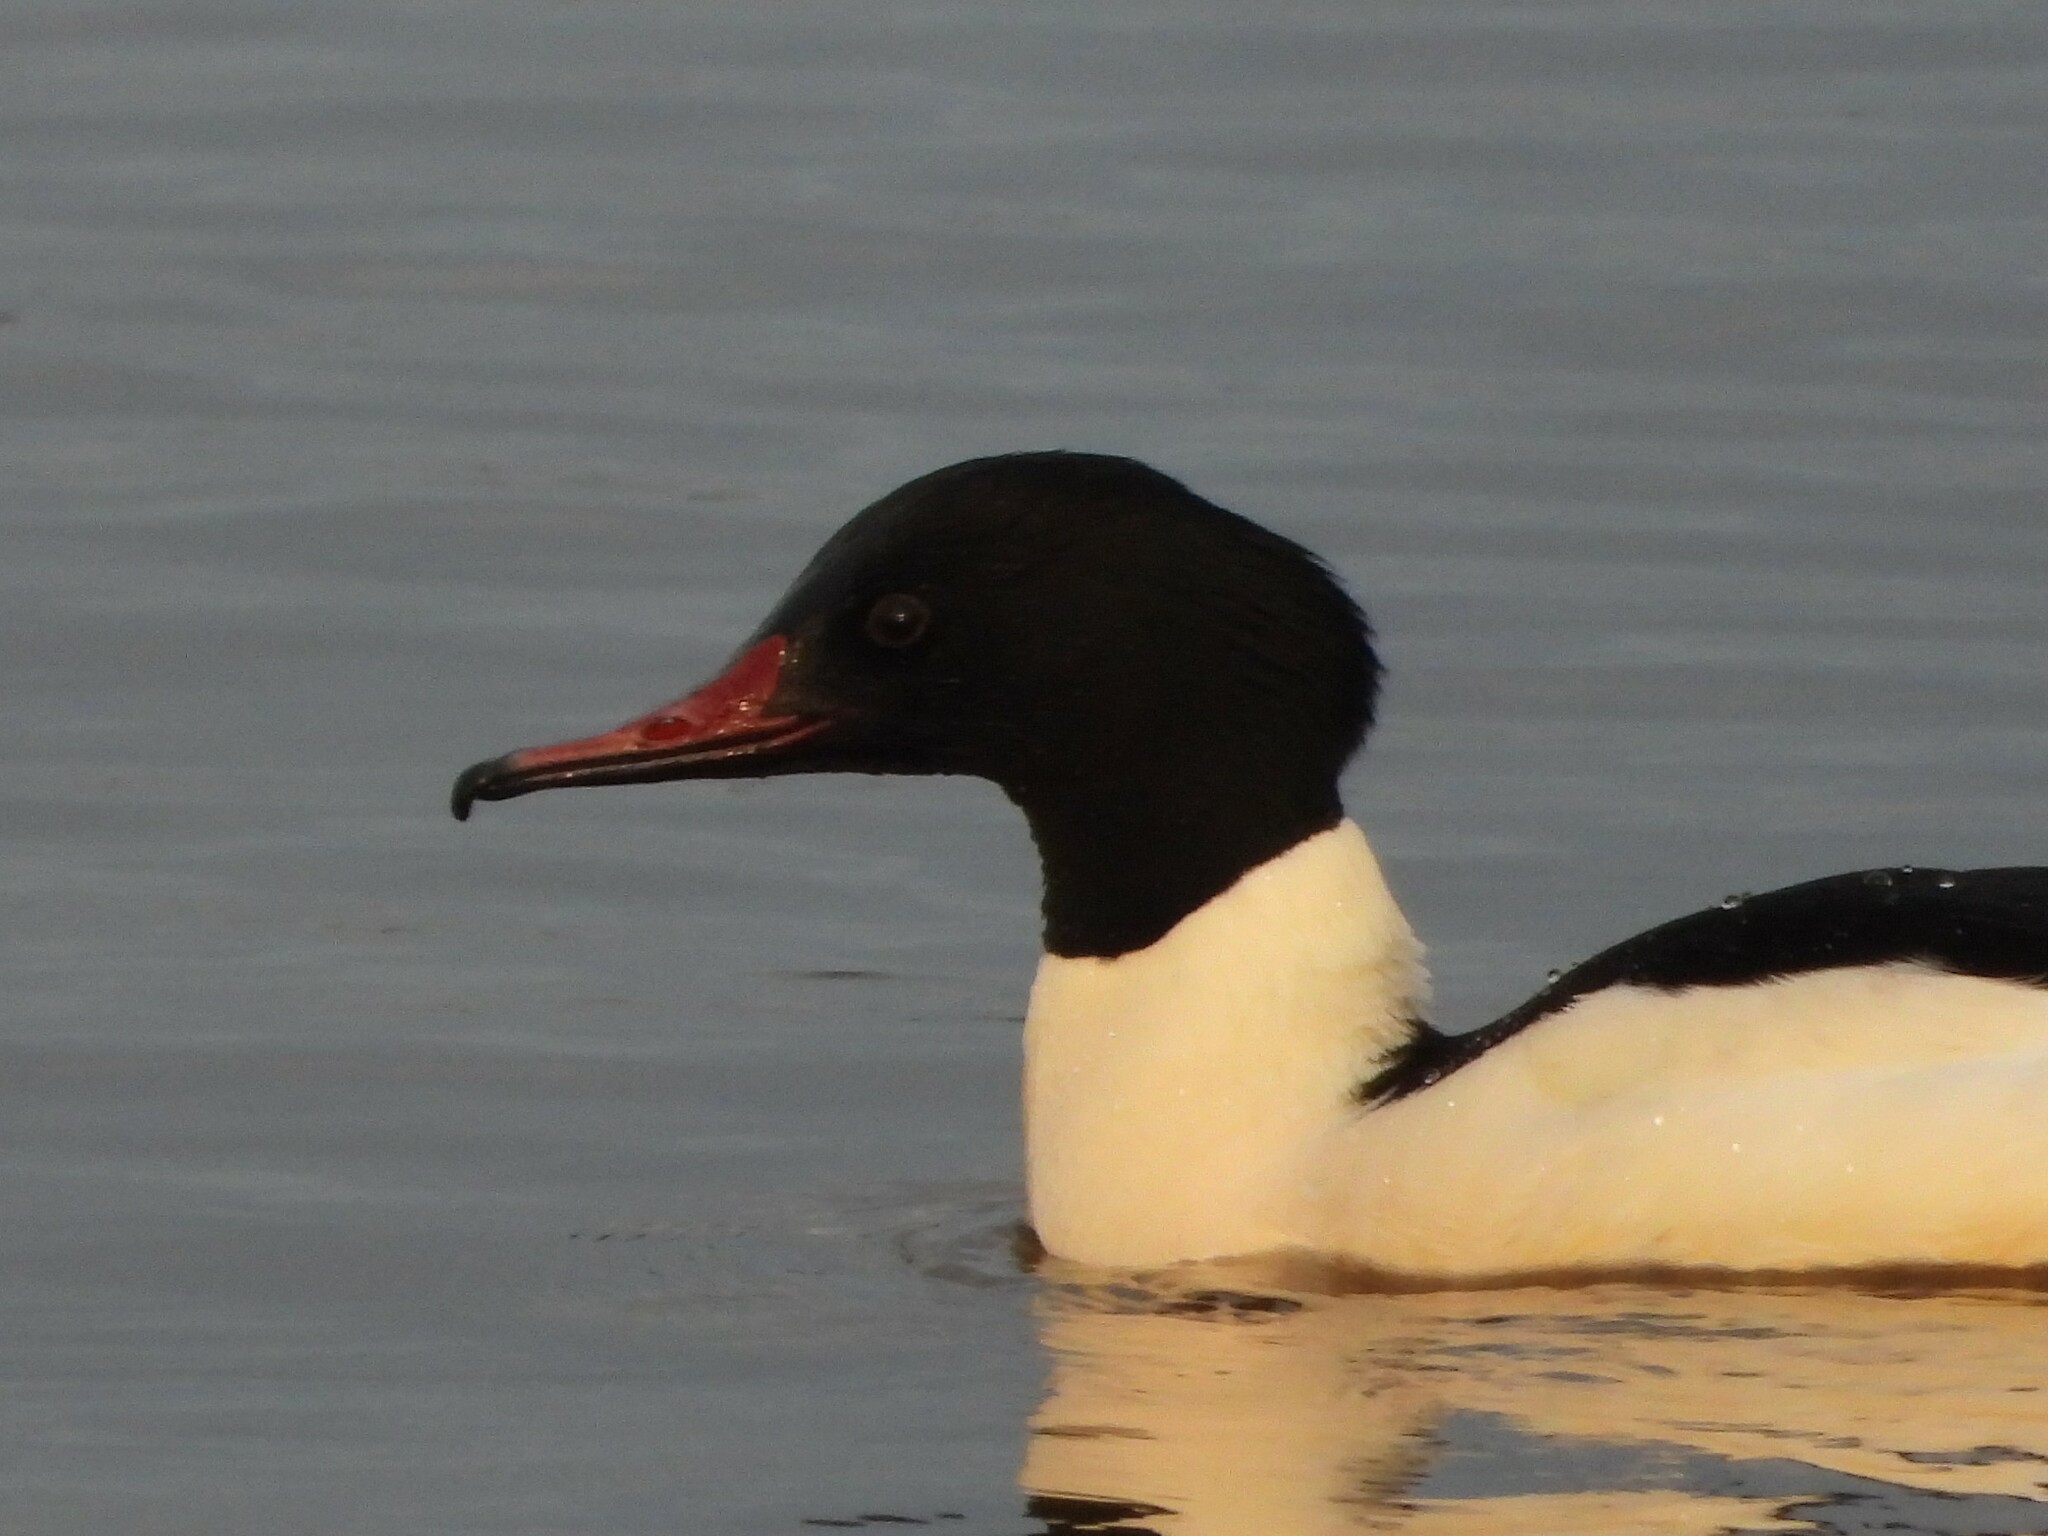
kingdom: Animalia
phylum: Chordata
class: Aves
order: Anseriformes
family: Anatidae
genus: Mergus
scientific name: Mergus merganser
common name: Common merganser
